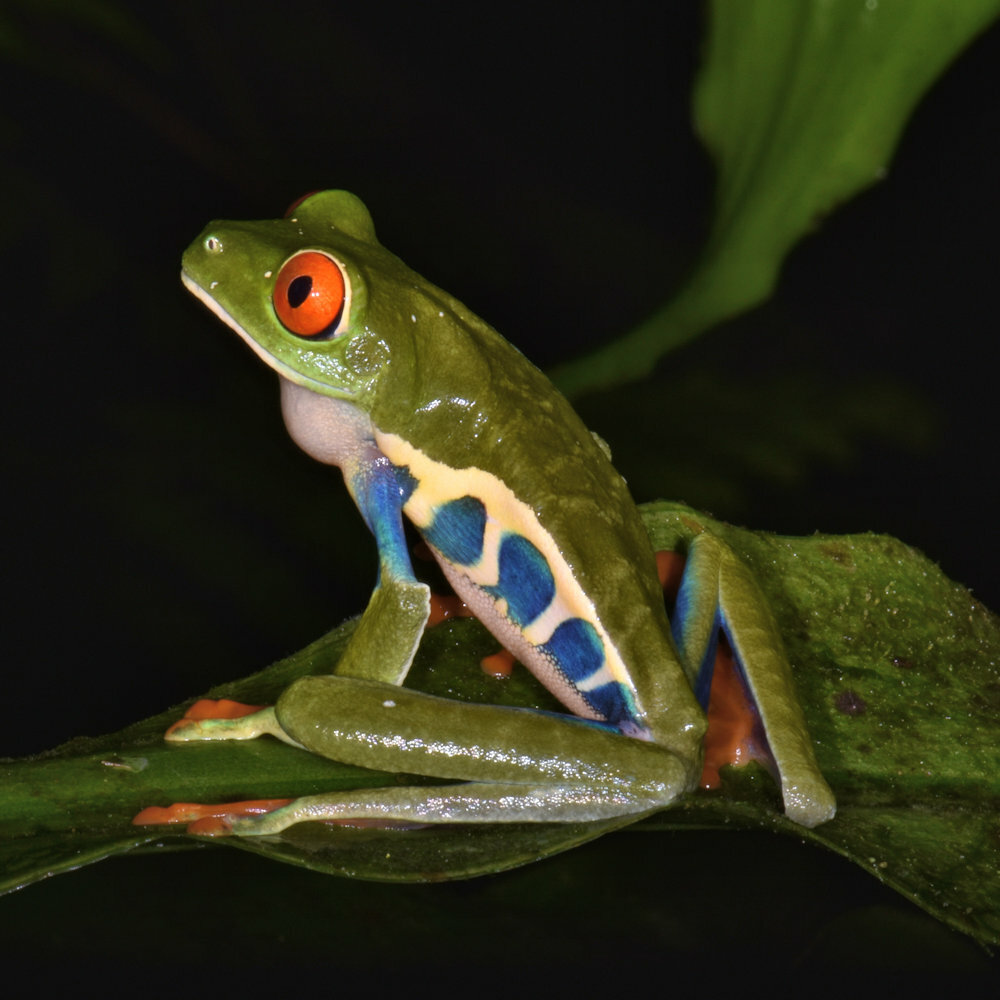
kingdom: Animalia
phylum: Chordata
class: Amphibia
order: Anura
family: Phyllomedusidae
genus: Agalychnis
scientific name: Agalychnis callidryas
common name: Red-eyed treefrog
